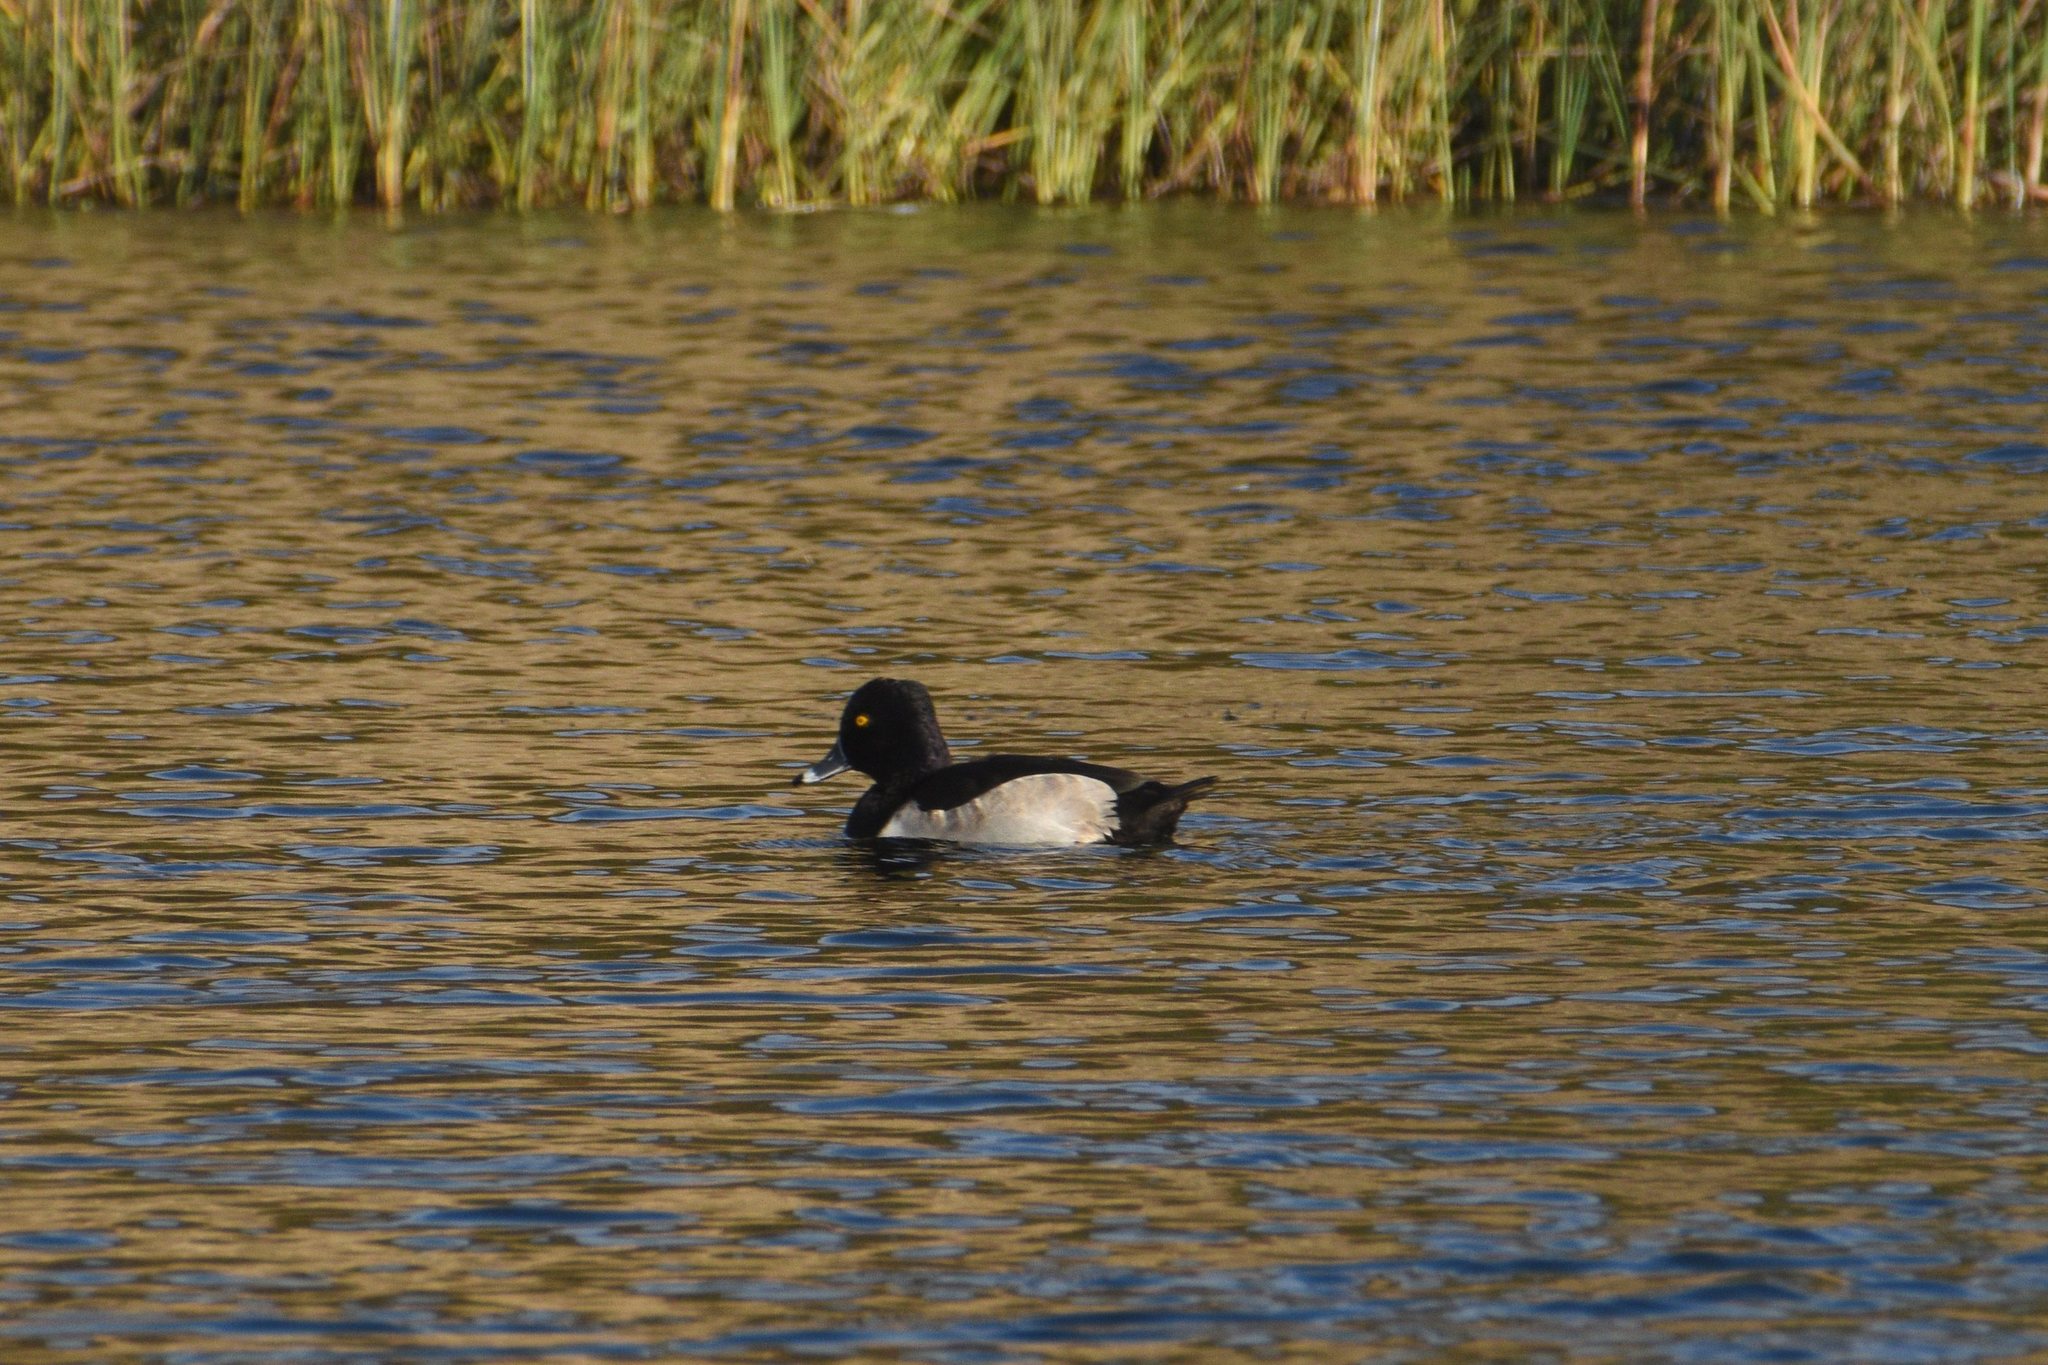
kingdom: Animalia
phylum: Chordata
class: Aves
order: Anseriformes
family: Anatidae
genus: Aythya
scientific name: Aythya collaris
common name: Ring-necked duck
